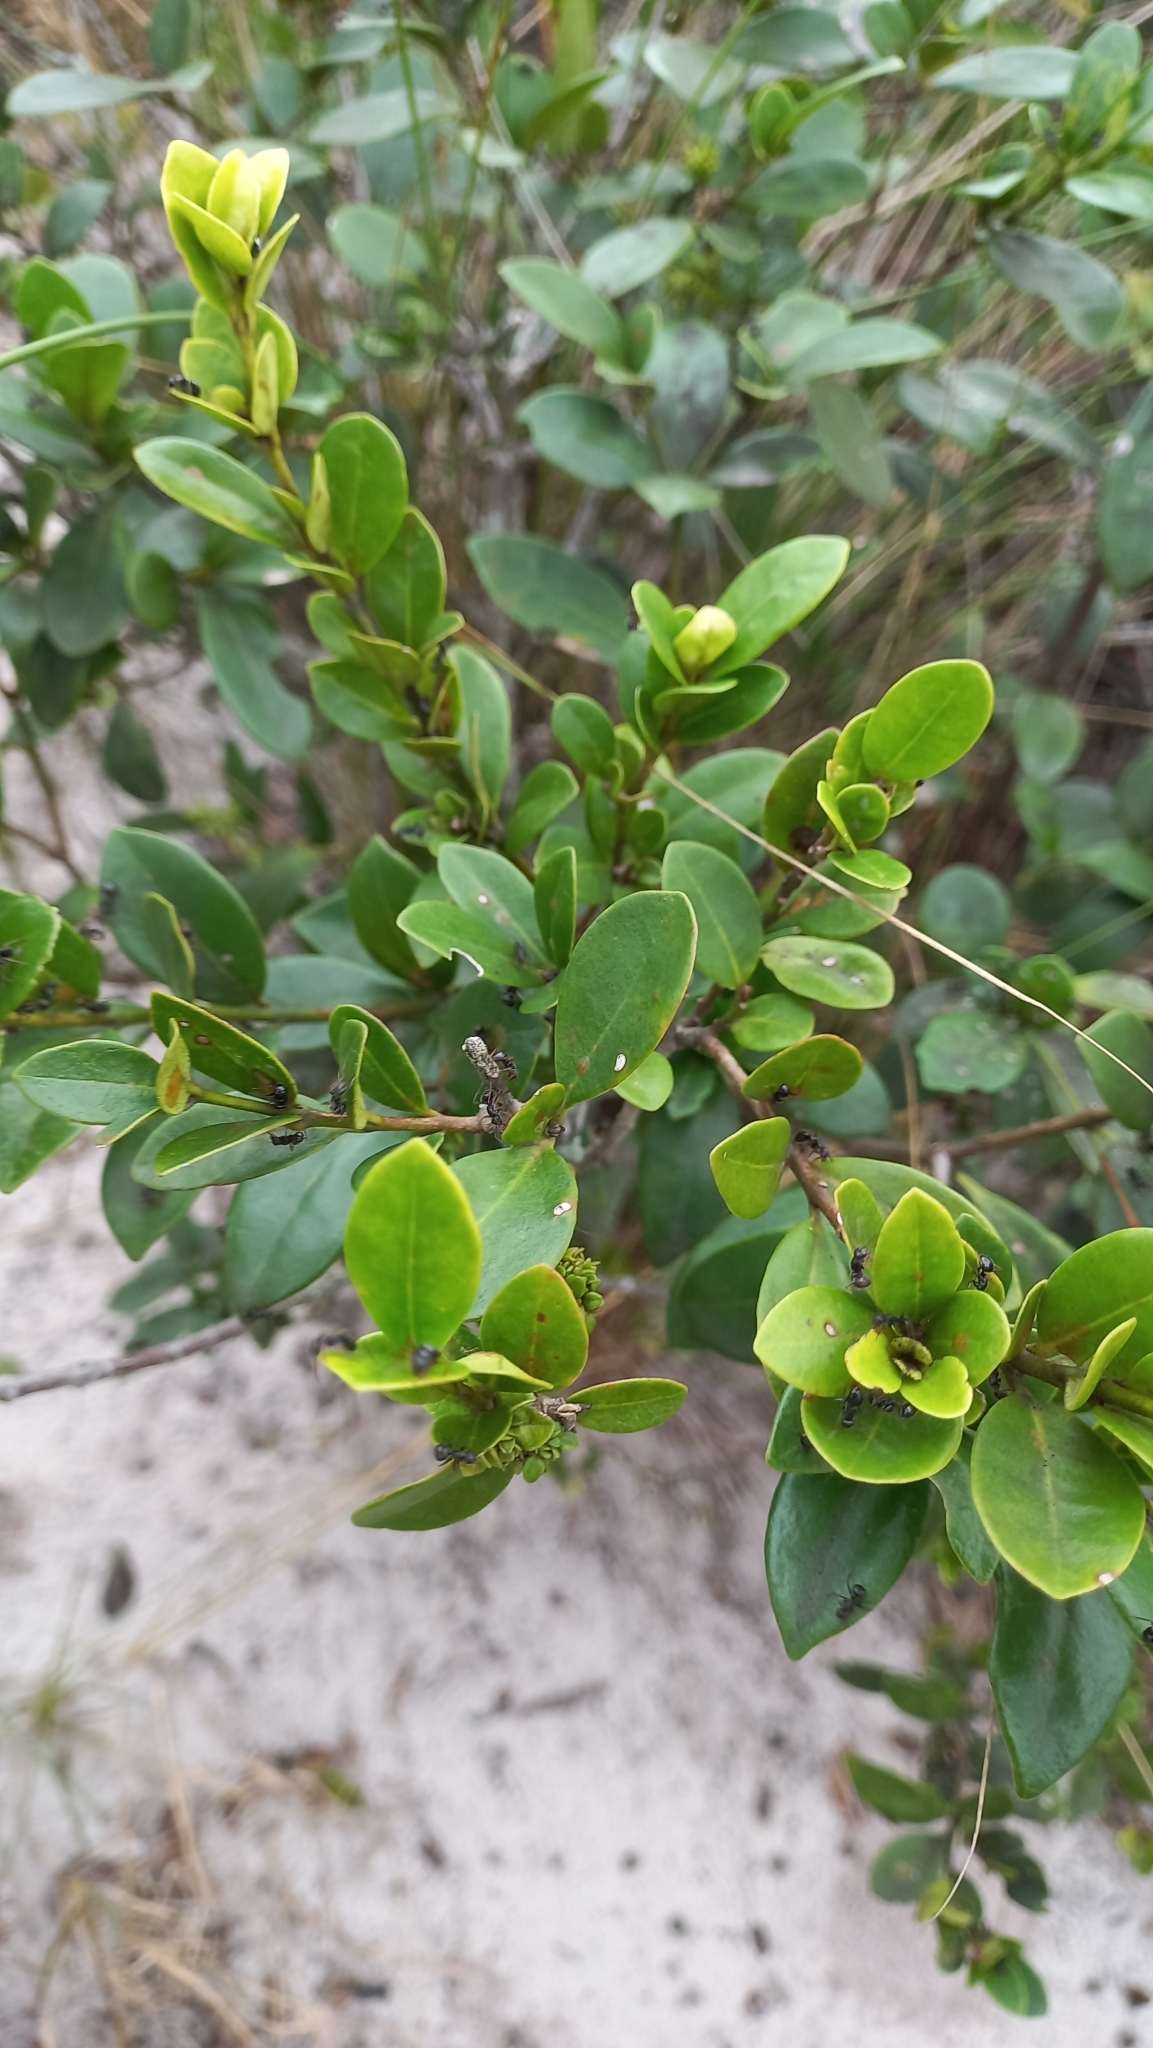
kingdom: Plantae
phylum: Tracheophyta
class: Magnoliopsida
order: Caryophyllales
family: Nyctaginaceae
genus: Guapira
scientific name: Guapira opposita
